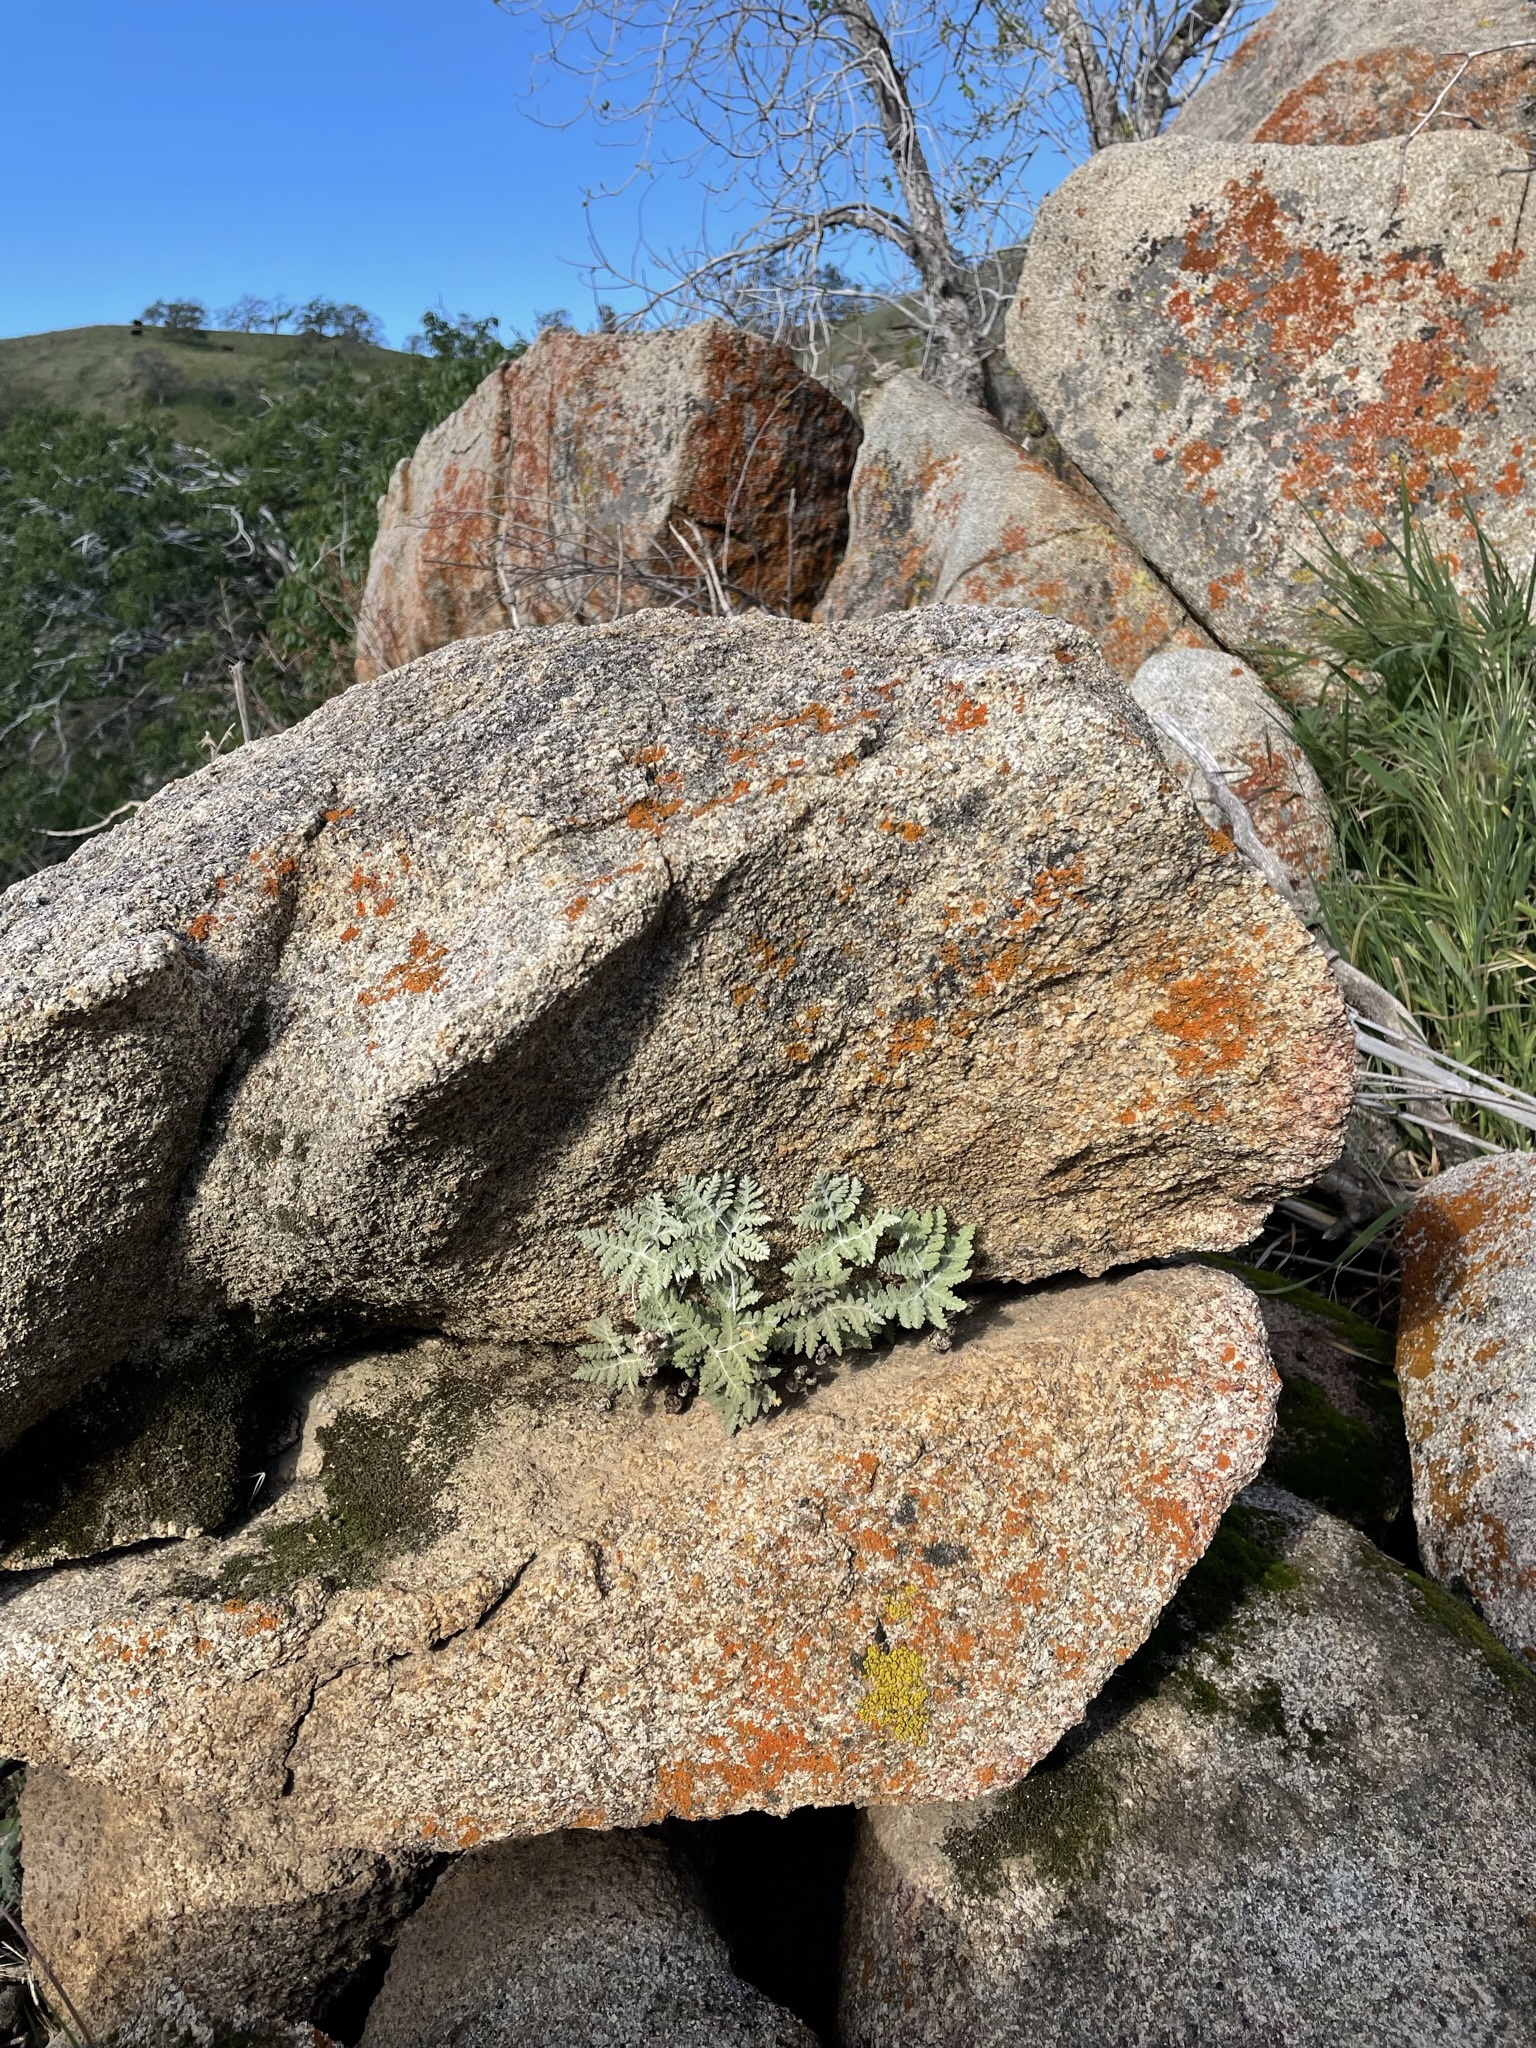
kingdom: Plantae
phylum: Tracheophyta
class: Polypodiopsida
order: Polypodiales
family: Pteridaceae
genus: Pentagramma
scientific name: Pentagramma pallida
